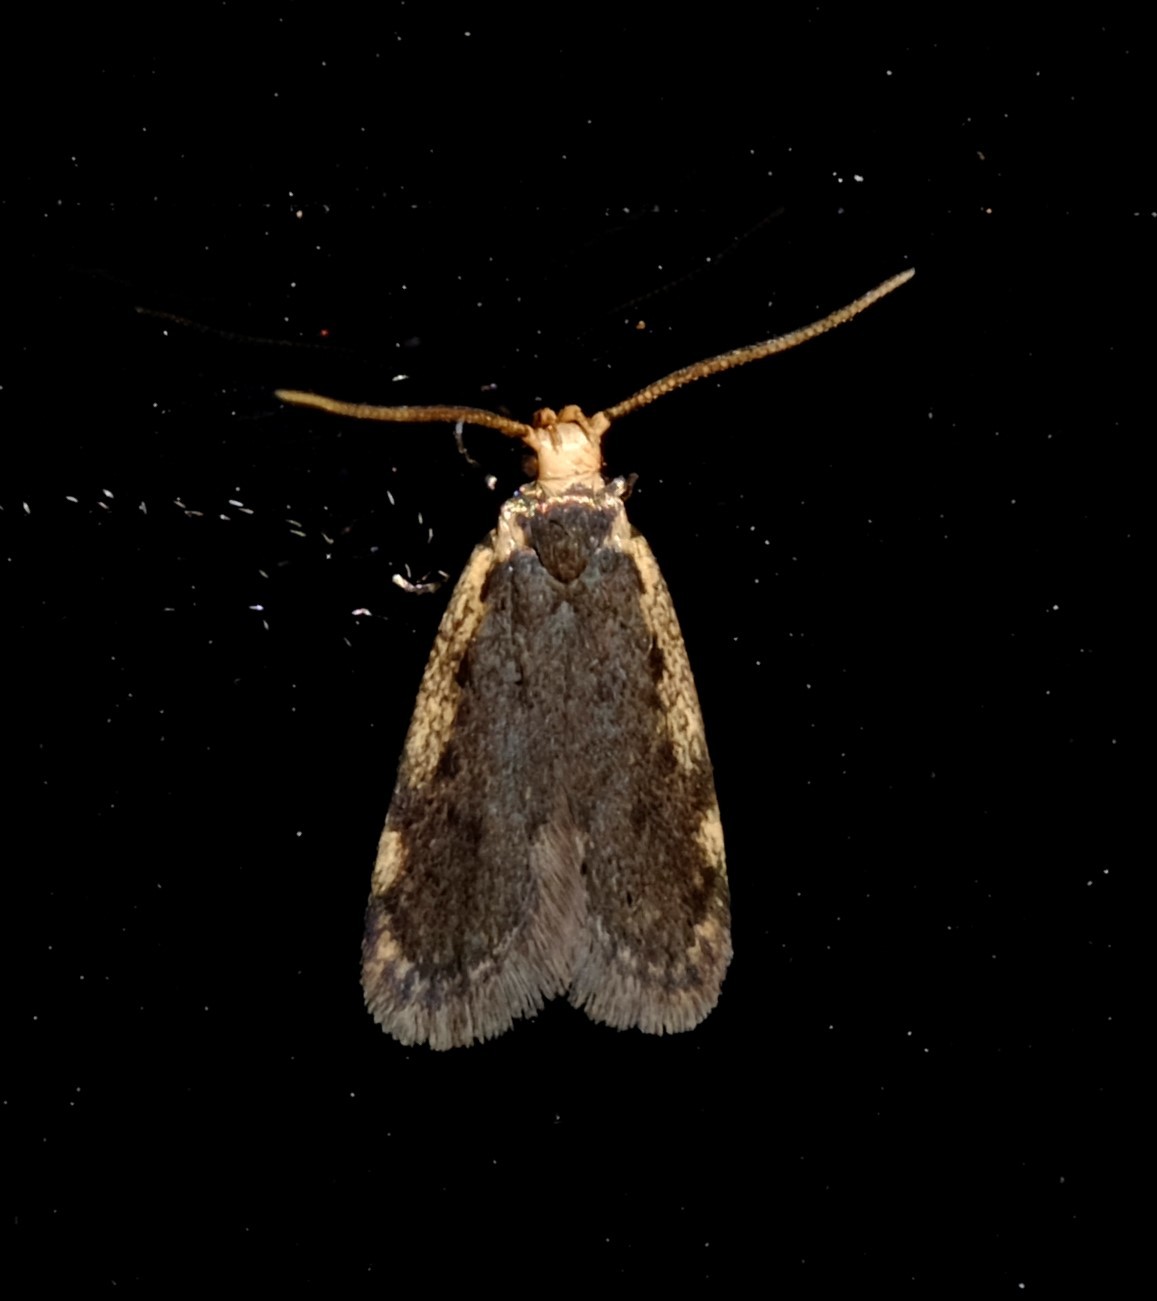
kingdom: Animalia
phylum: Arthropoda
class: Insecta
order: Lepidoptera
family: Oecophoridae
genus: Hoplostega
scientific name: Hoplostega ochroma
